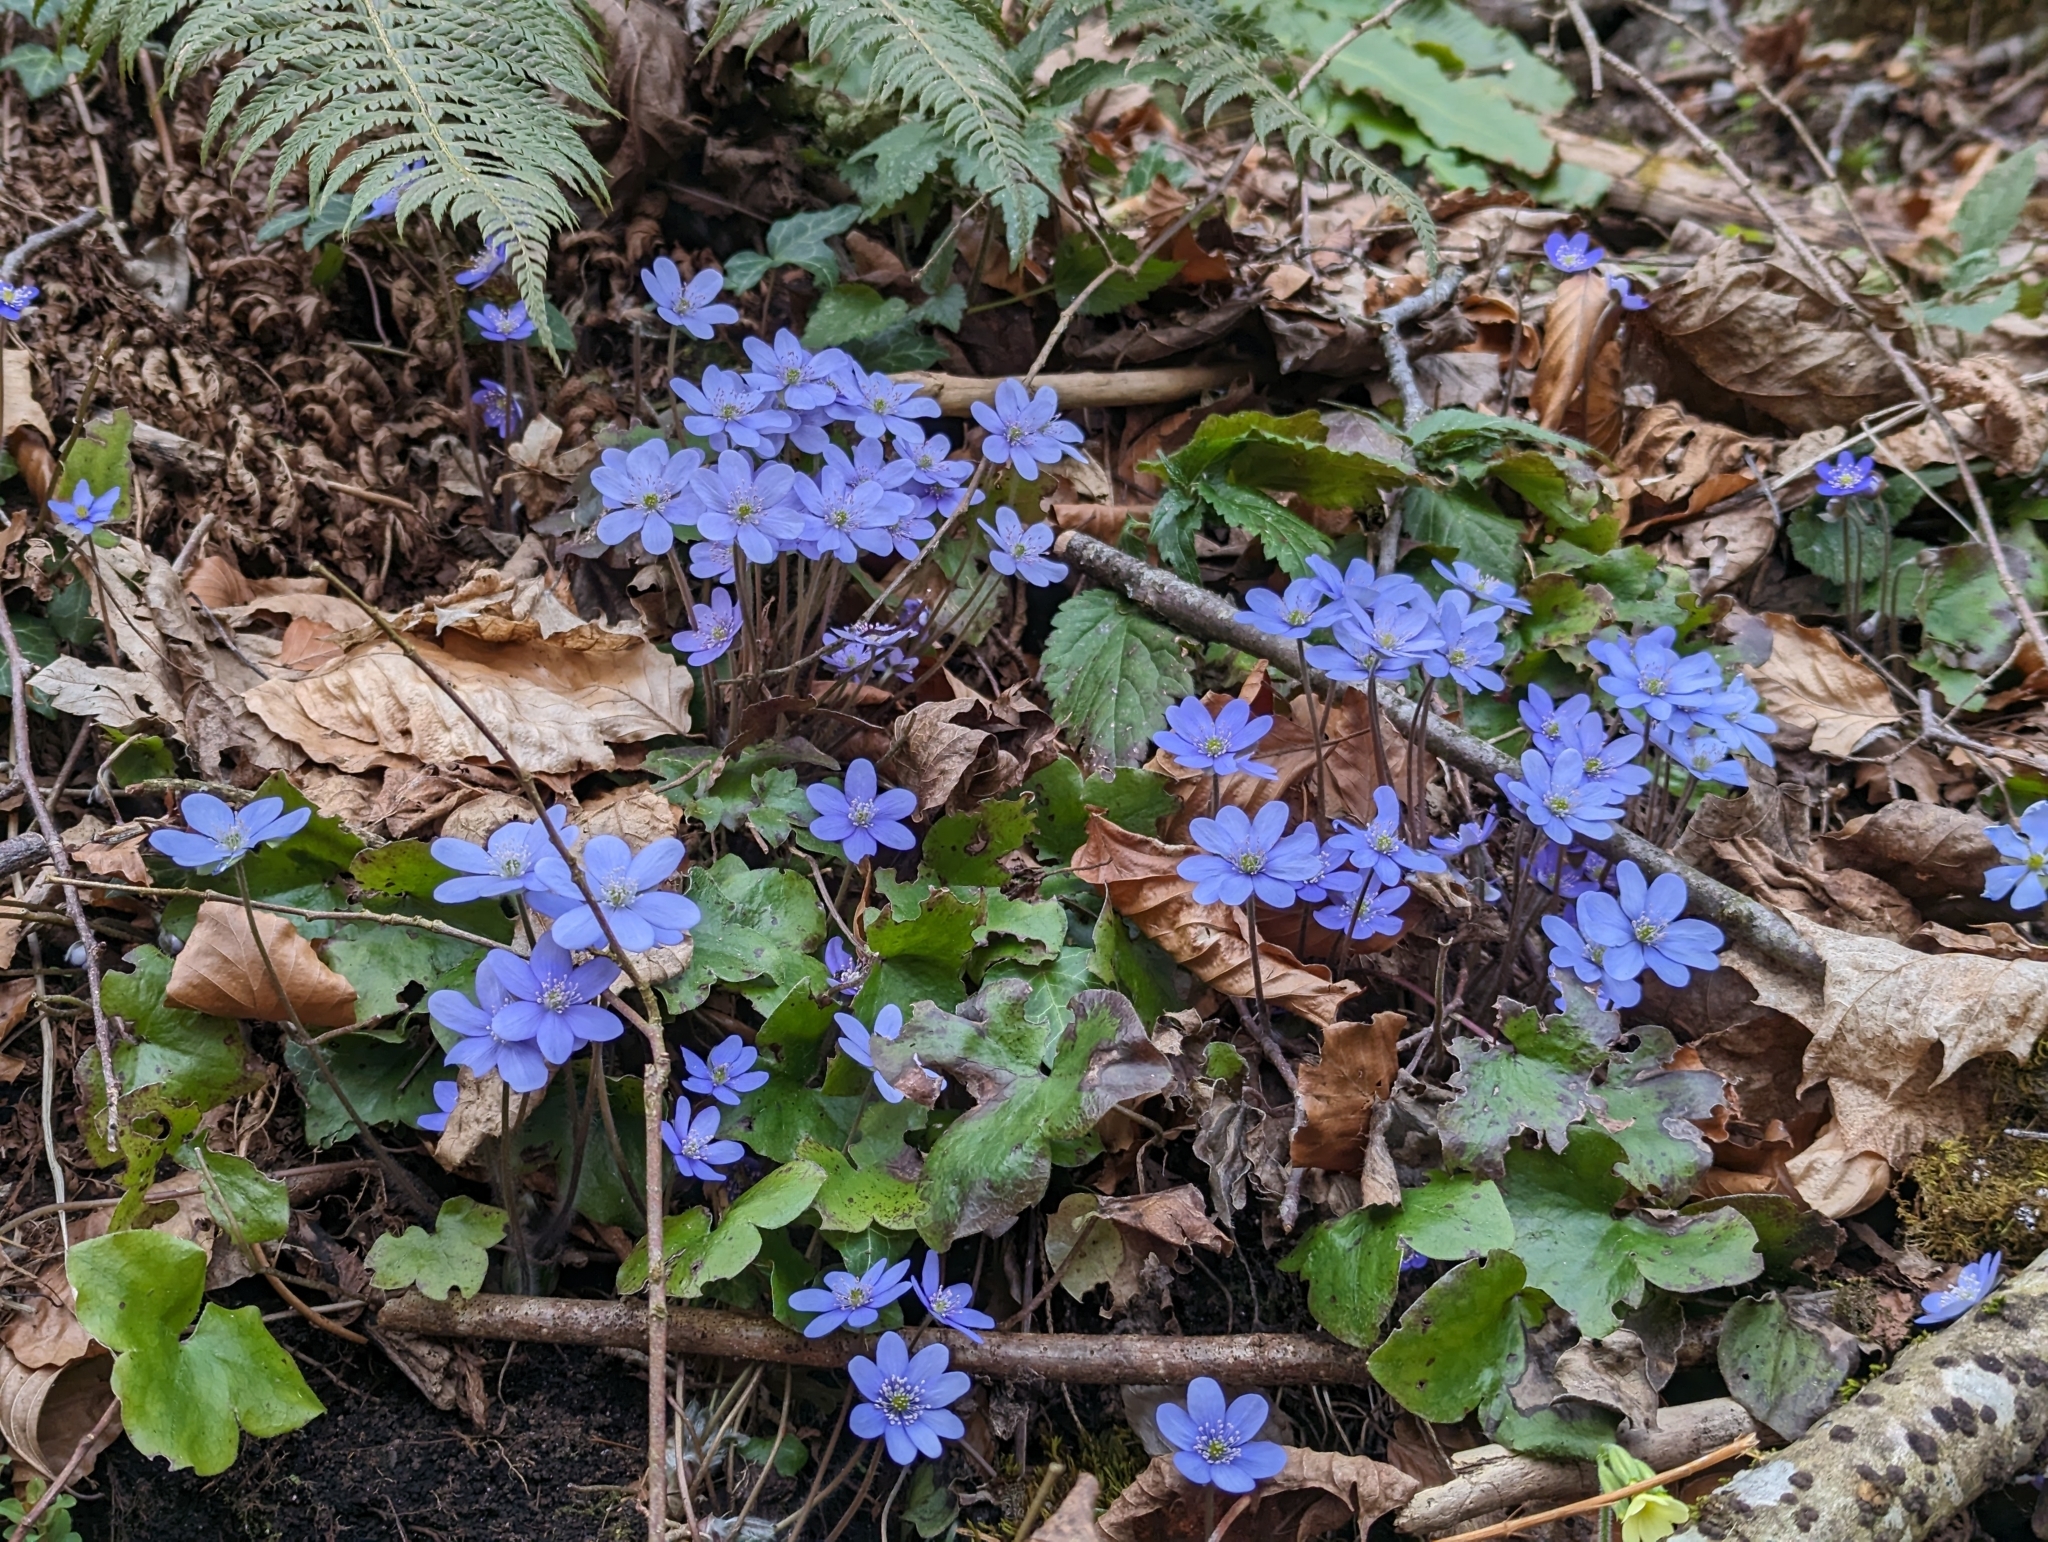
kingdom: Plantae
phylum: Tracheophyta
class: Magnoliopsida
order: Ranunculales
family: Ranunculaceae
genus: Hepatica
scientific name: Hepatica nobilis
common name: Liverleaf
